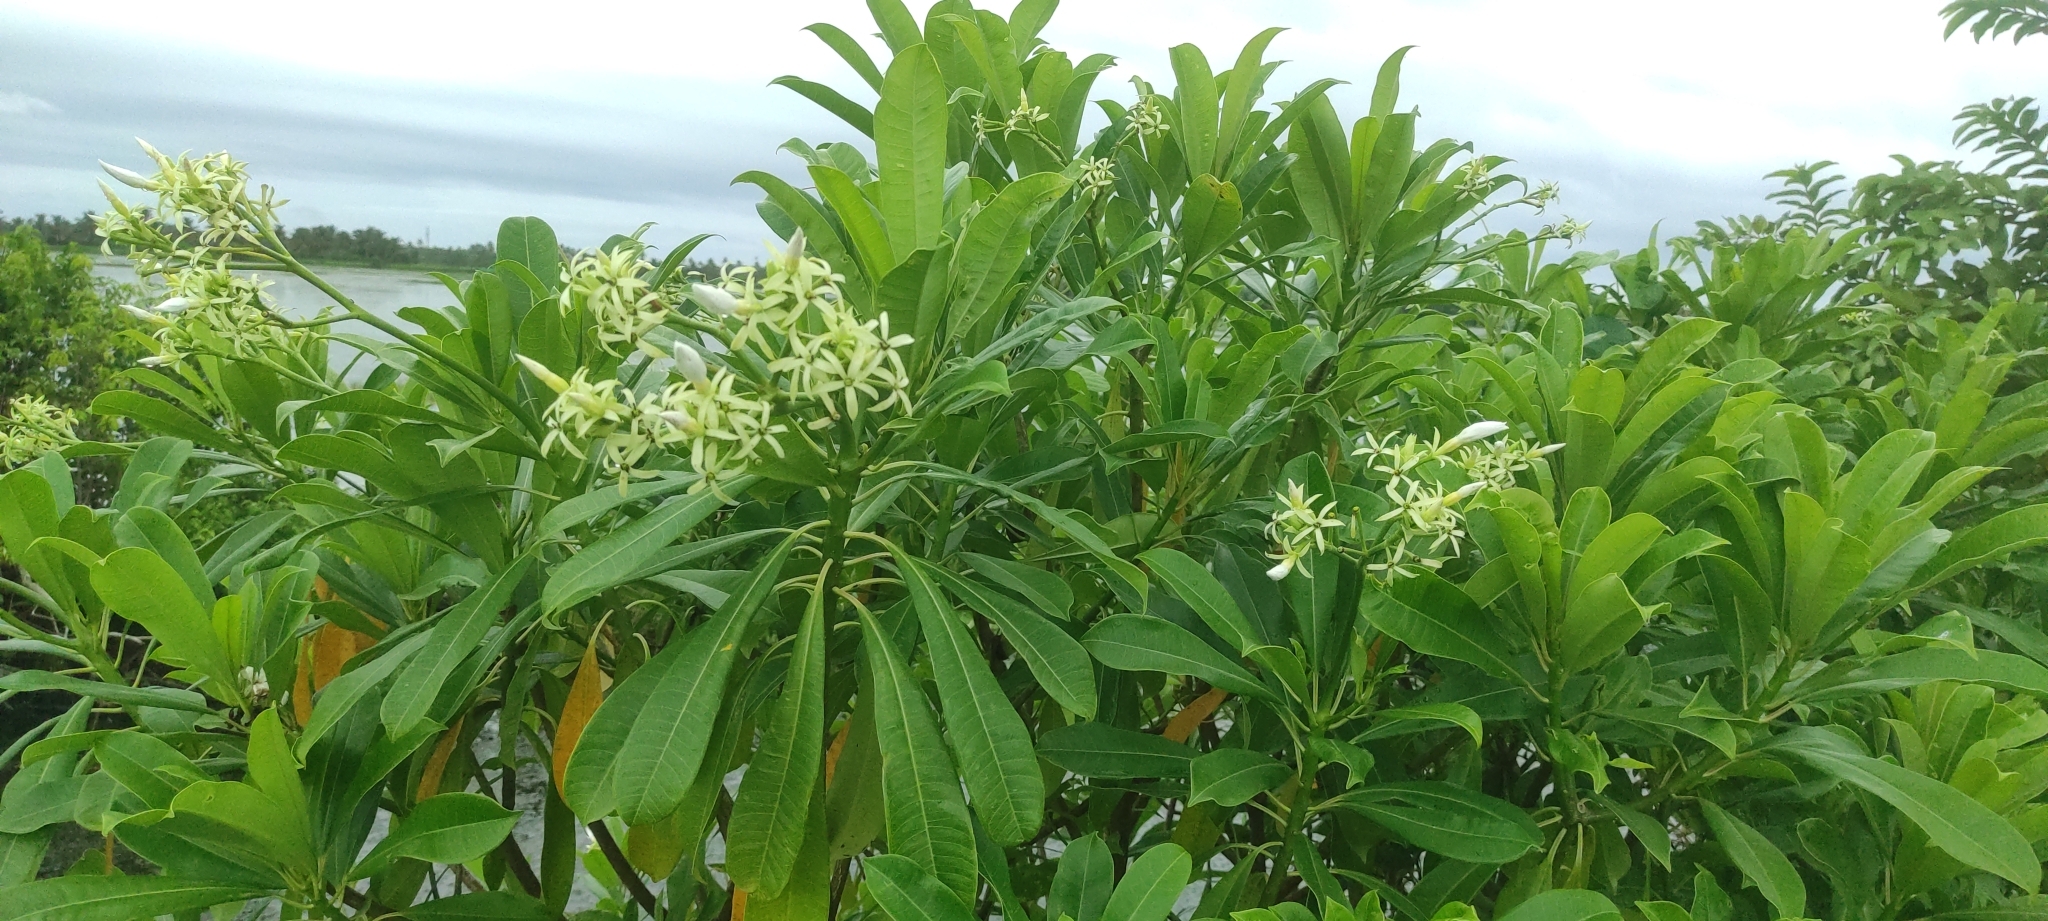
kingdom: Plantae
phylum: Tracheophyta
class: Magnoliopsida
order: Gentianales
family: Apocynaceae
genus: Cerbera
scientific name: Cerbera odollam
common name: Pong-pong
